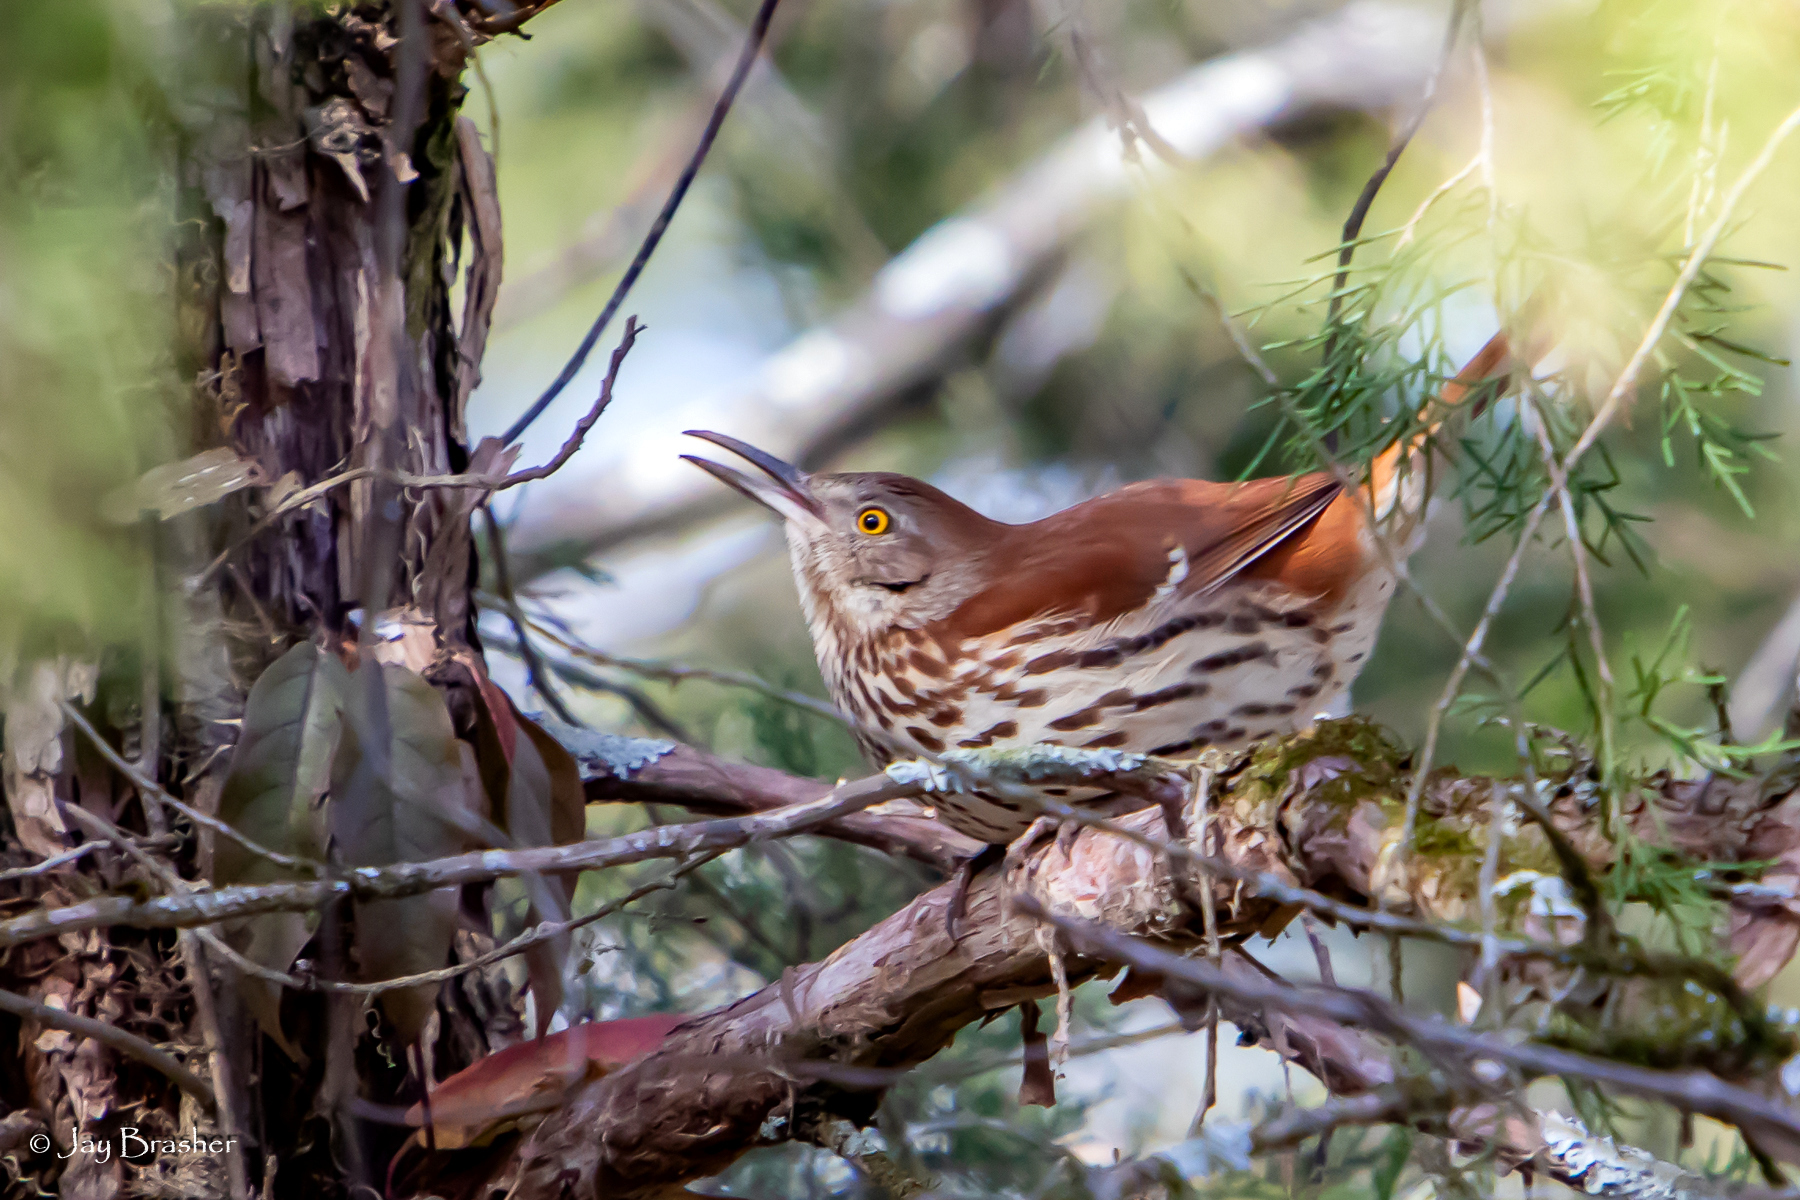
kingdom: Animalia
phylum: Chordata
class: Aves
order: Passeriformes
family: Mimidae
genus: Toxostoma
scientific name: Toxostoma rufum
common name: Brown thrasher
